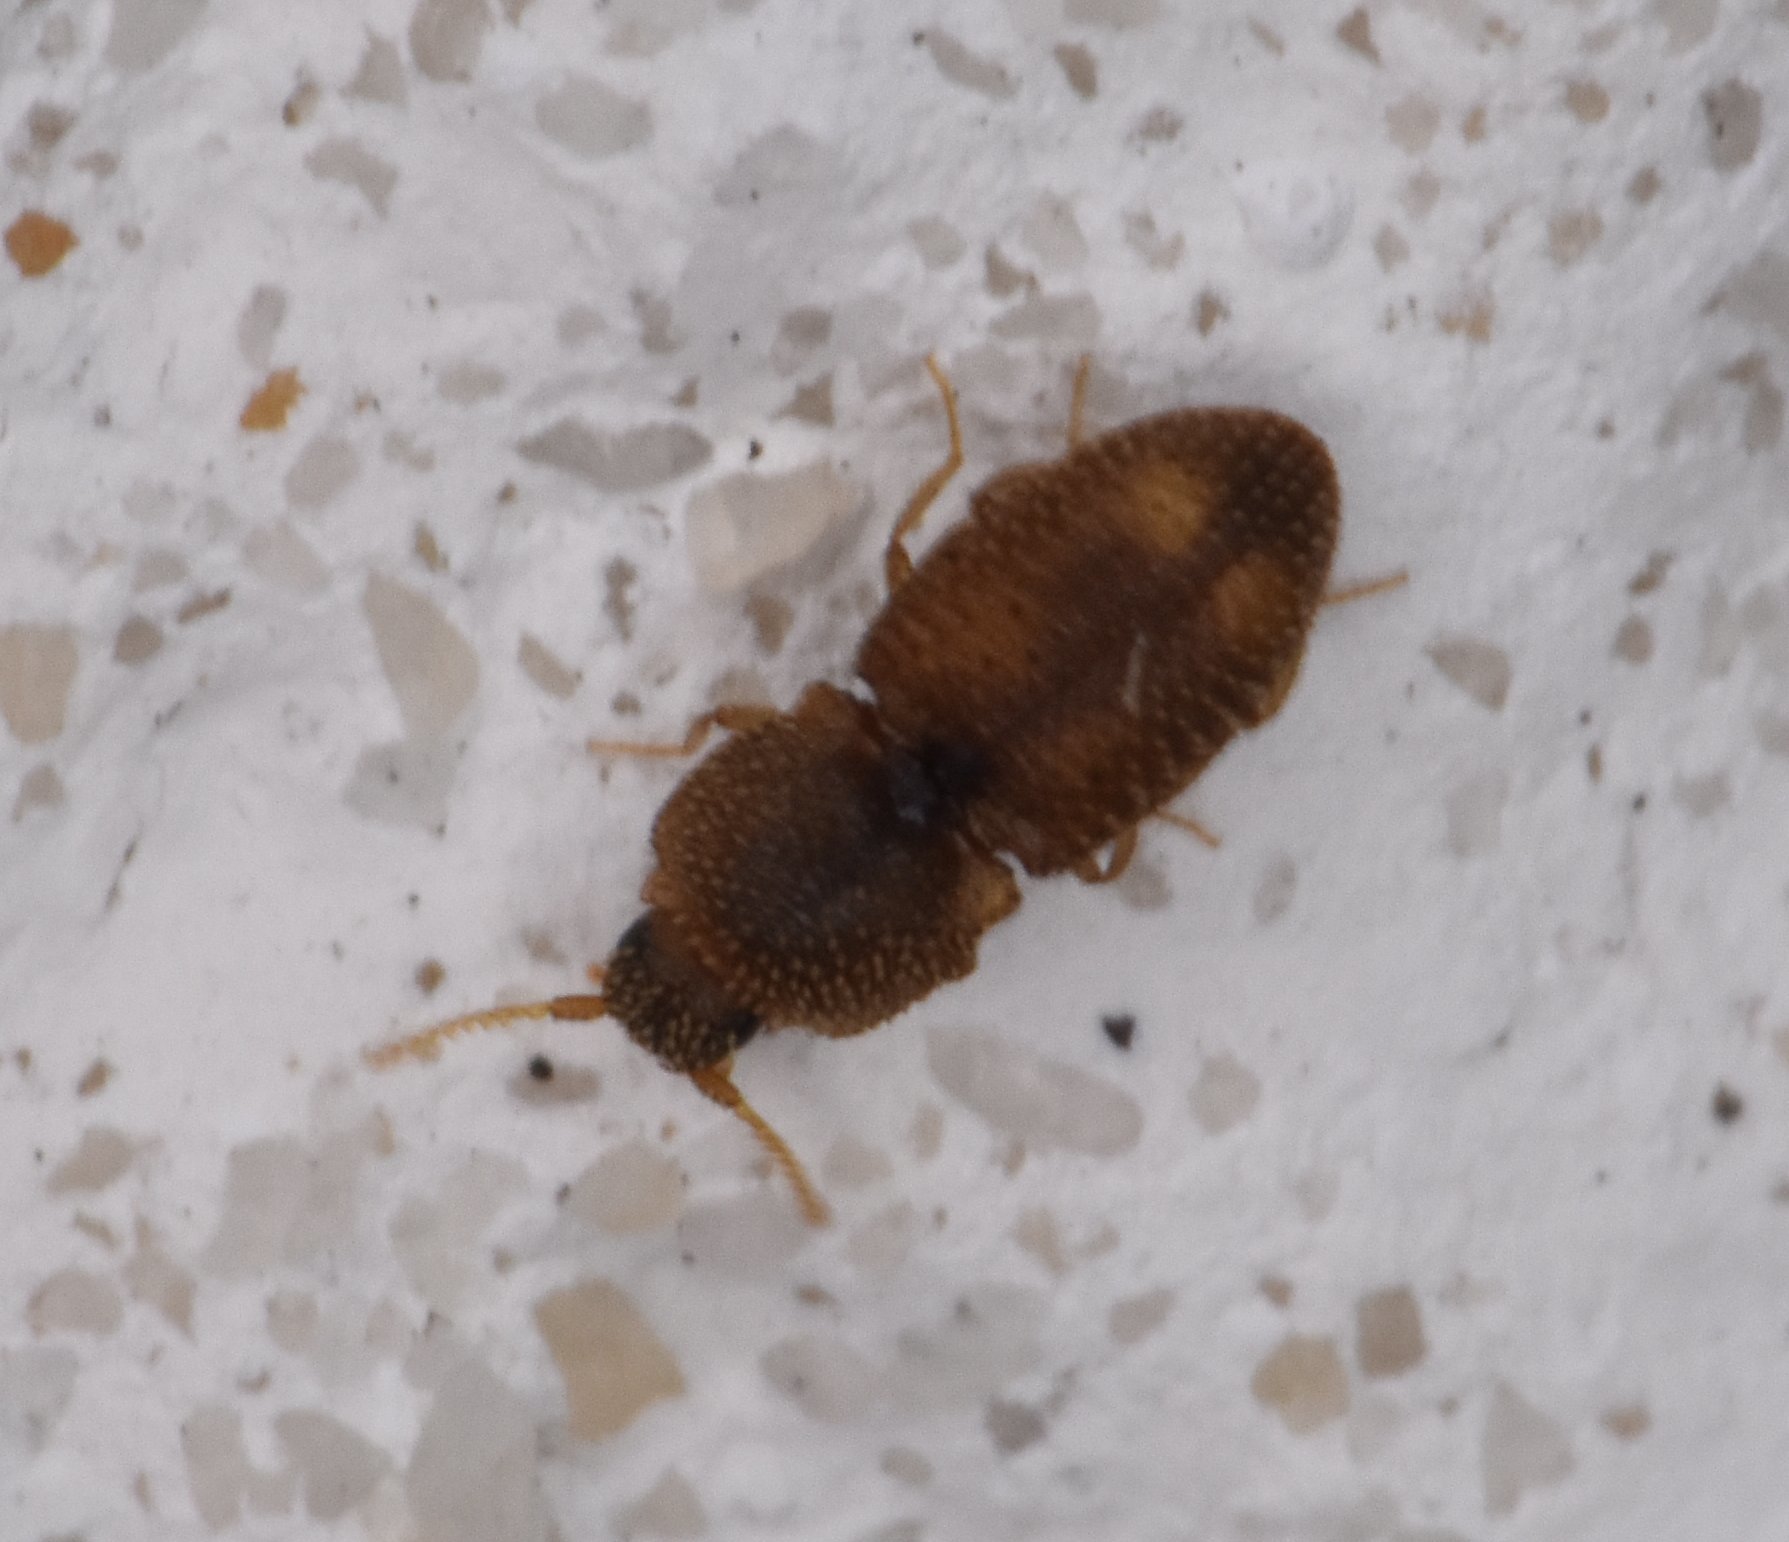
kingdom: Animalia
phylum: Arthropoda
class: Insecta
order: Coleoptera
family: Elateridae
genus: Rismethus
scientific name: Rismethus
